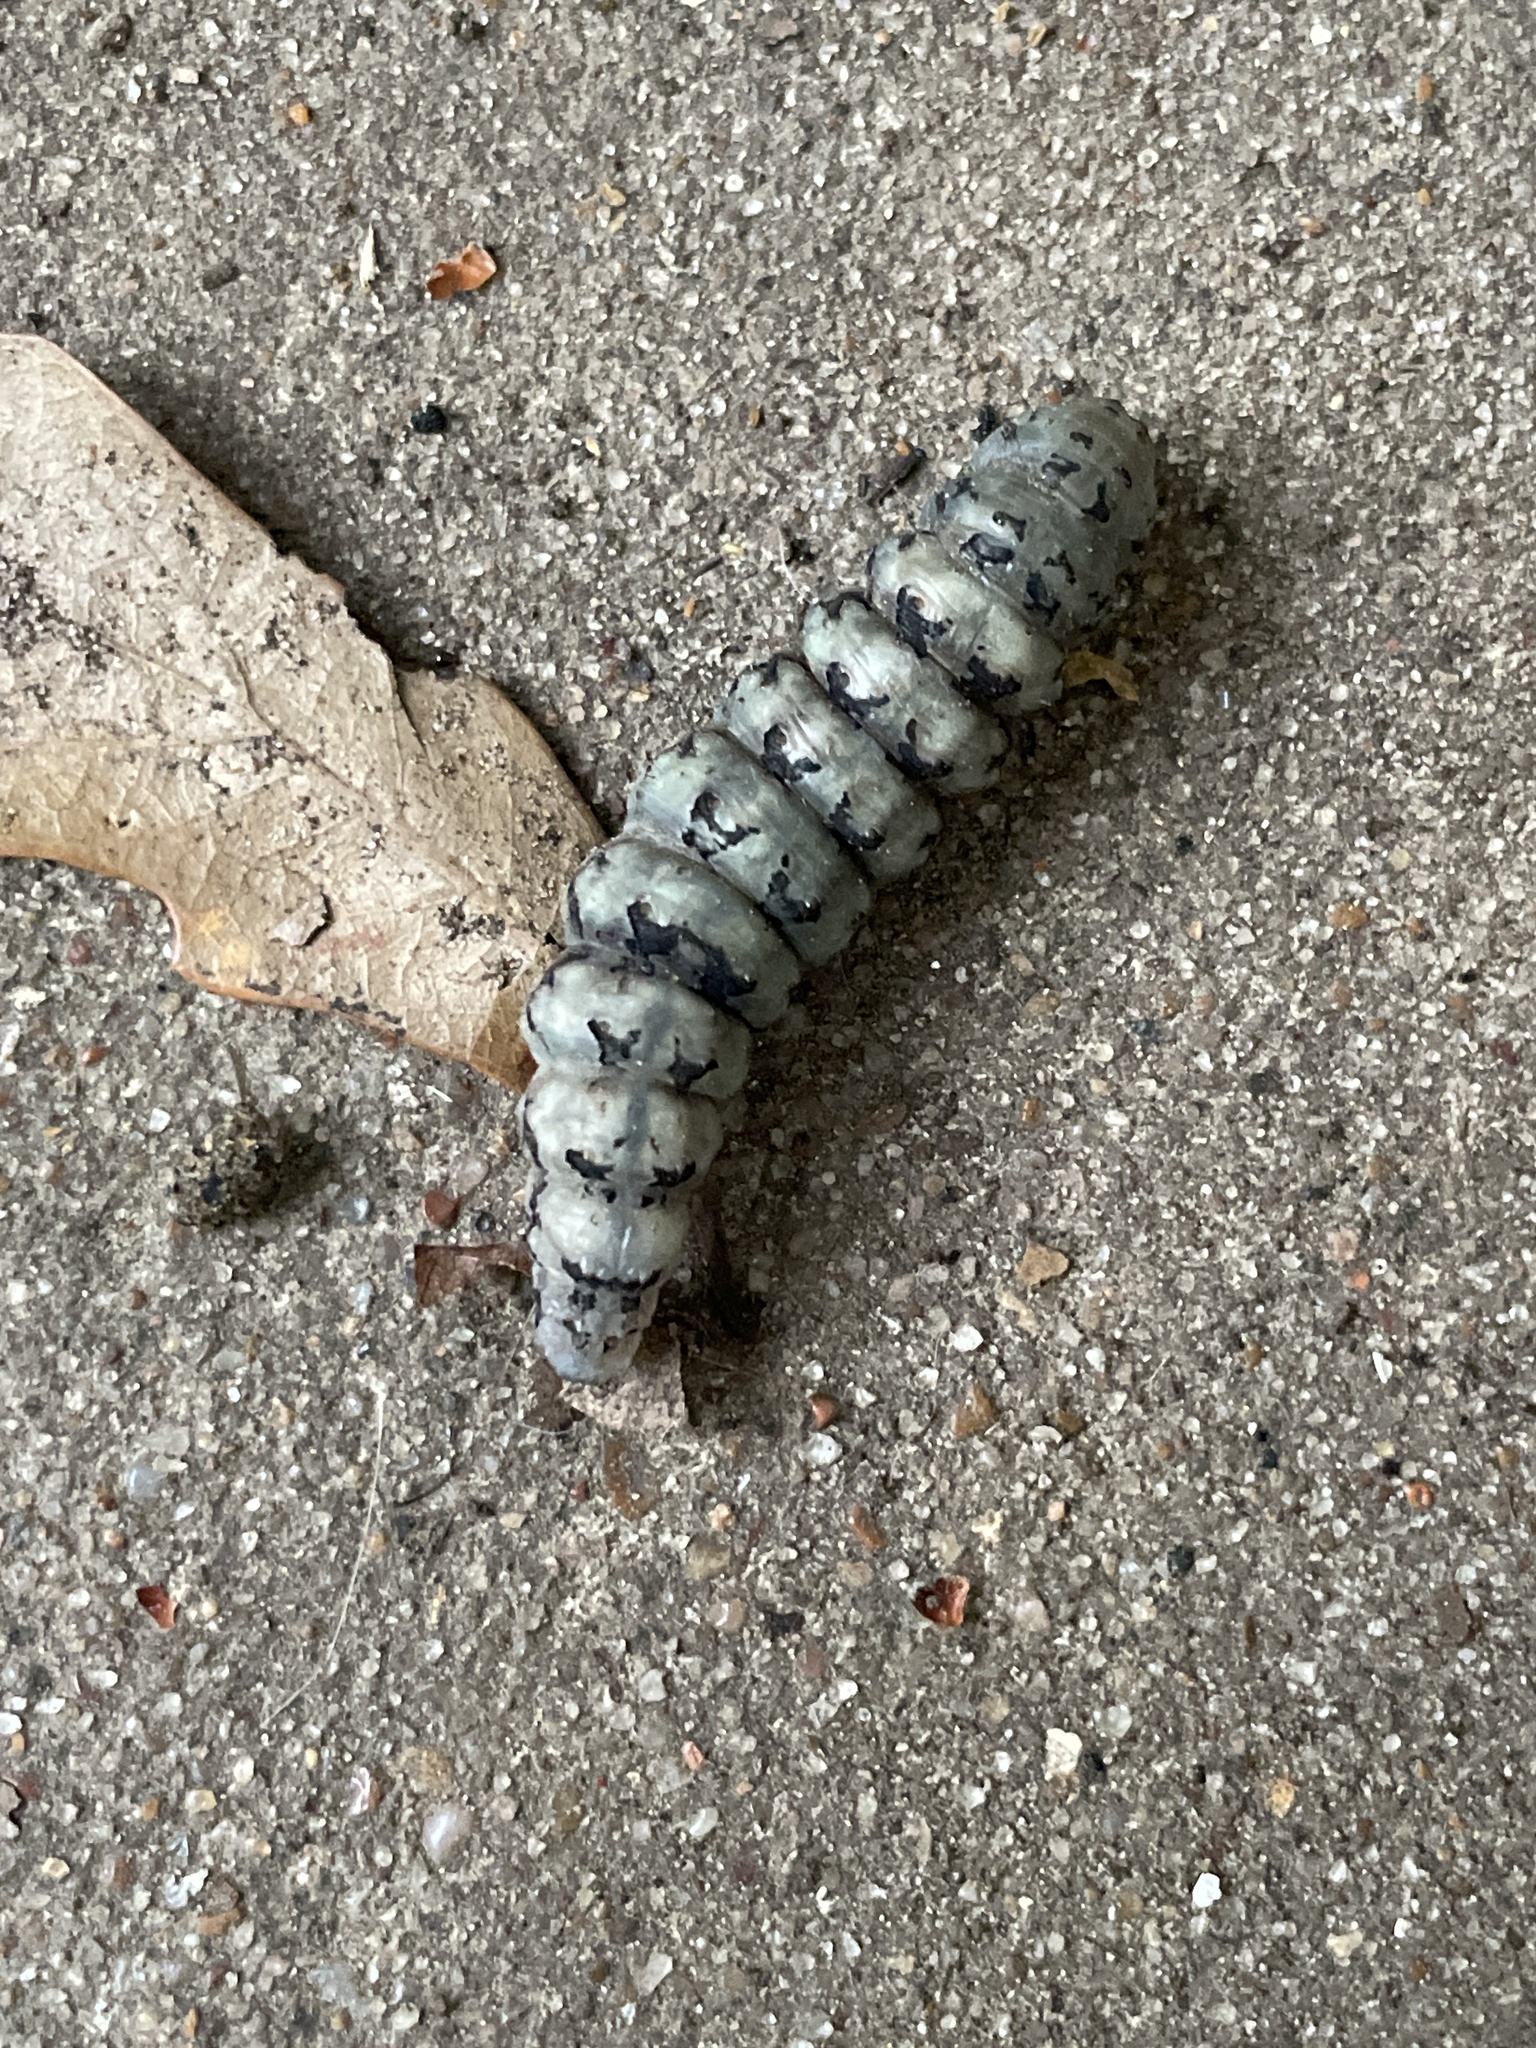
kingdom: Animalia
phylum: Arthropoda
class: Insecta
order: Lepidoptera
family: Erebidae
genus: Catocala
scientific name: Catocala ilia
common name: Ilia underwing
